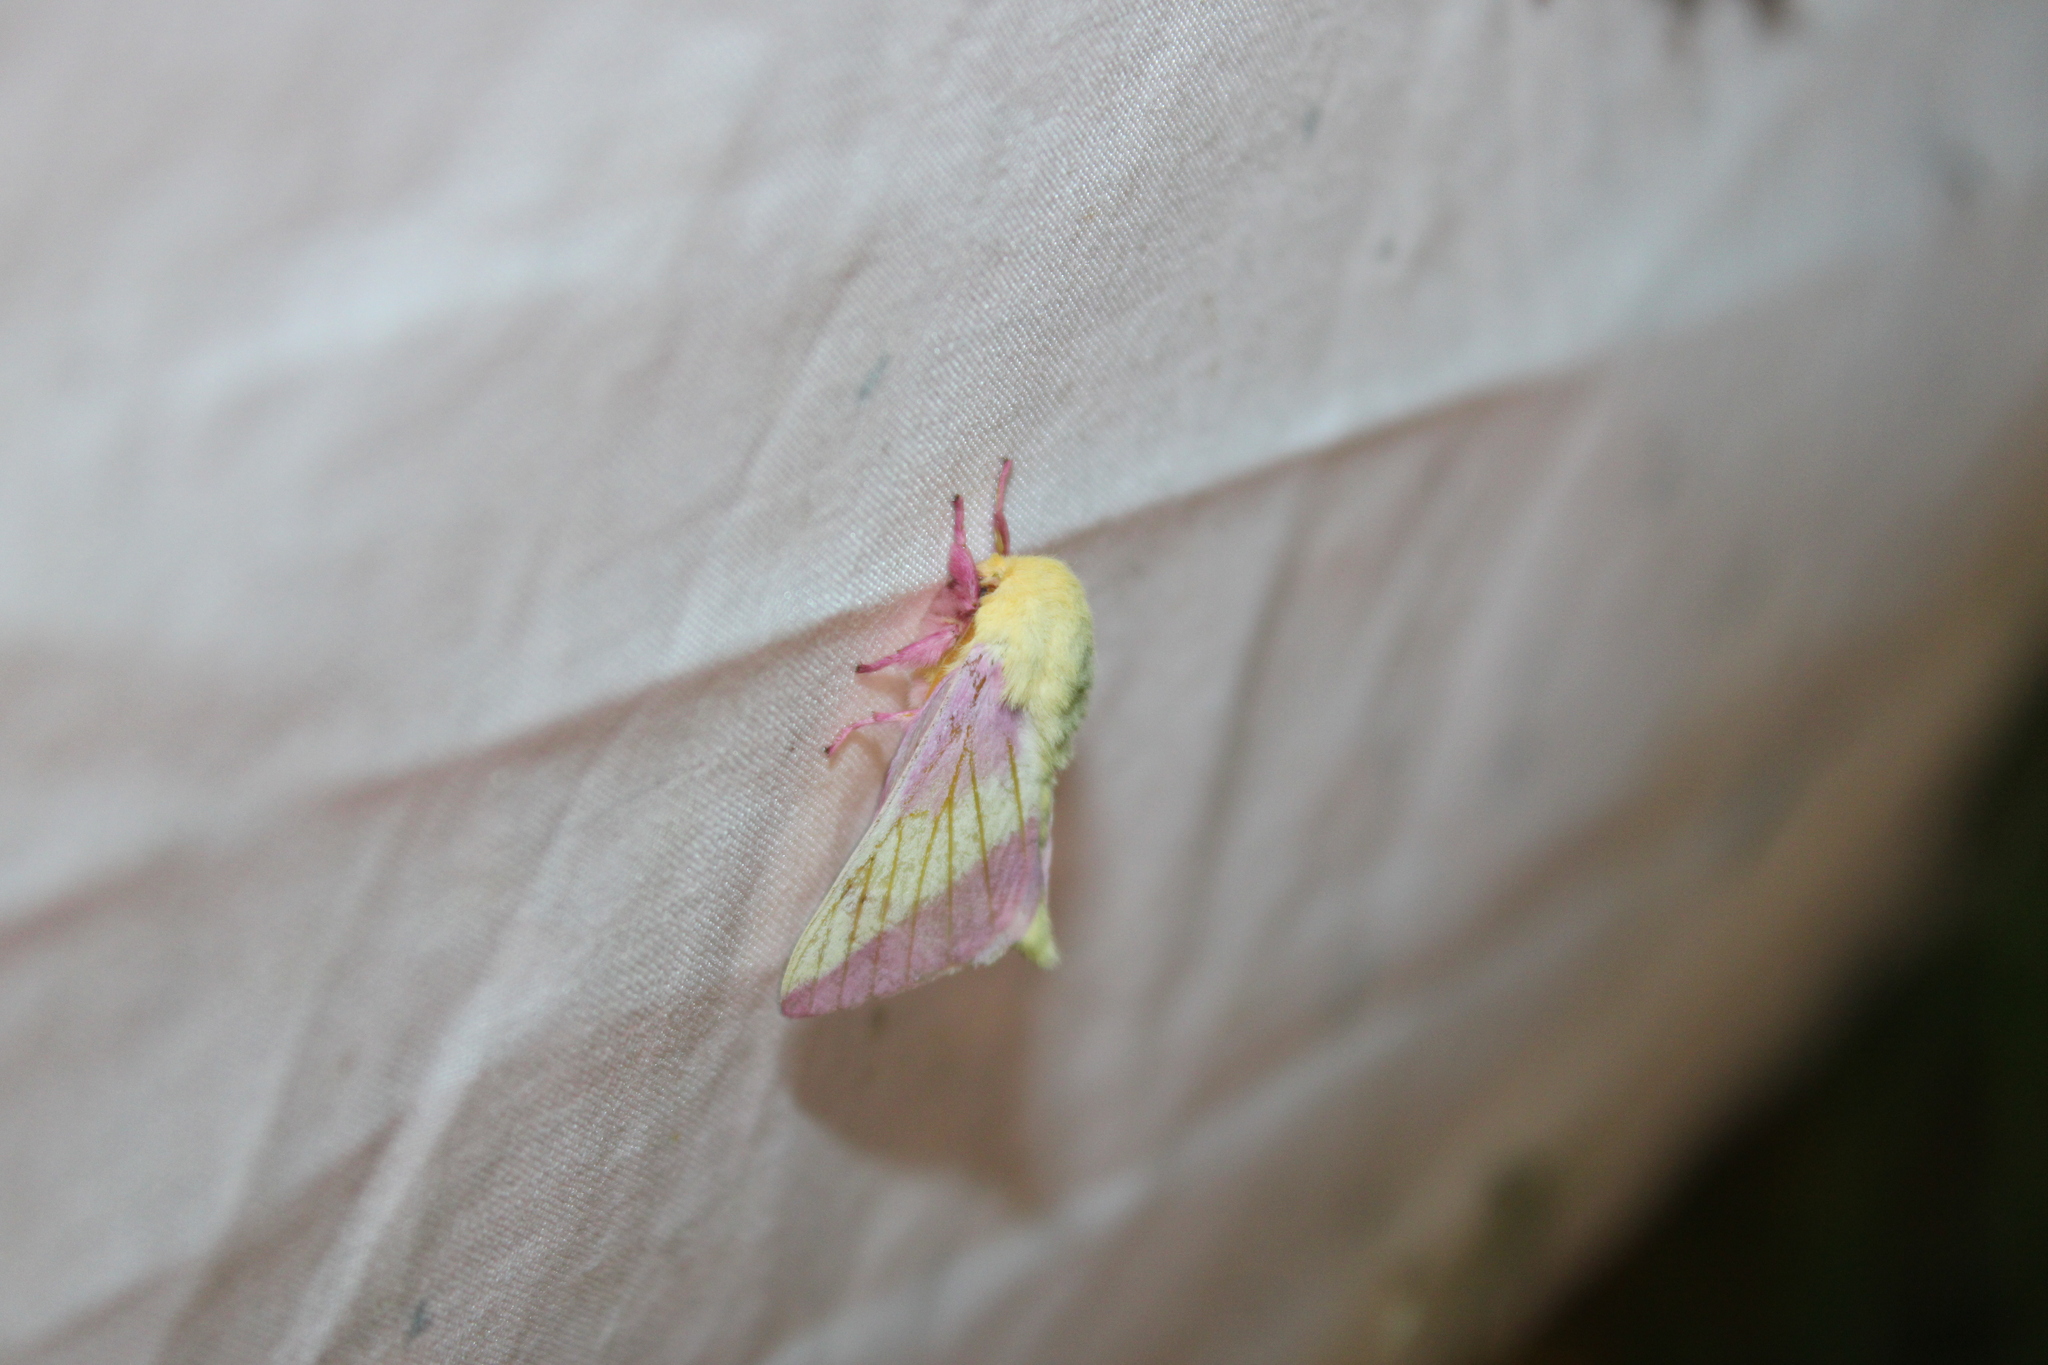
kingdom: Animalia
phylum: Arthropoda
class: Insecta
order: Lepidoptera
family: Saturniidae
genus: Dryocampa
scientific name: Dryocampa rubicunda
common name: Rosy maple moth
